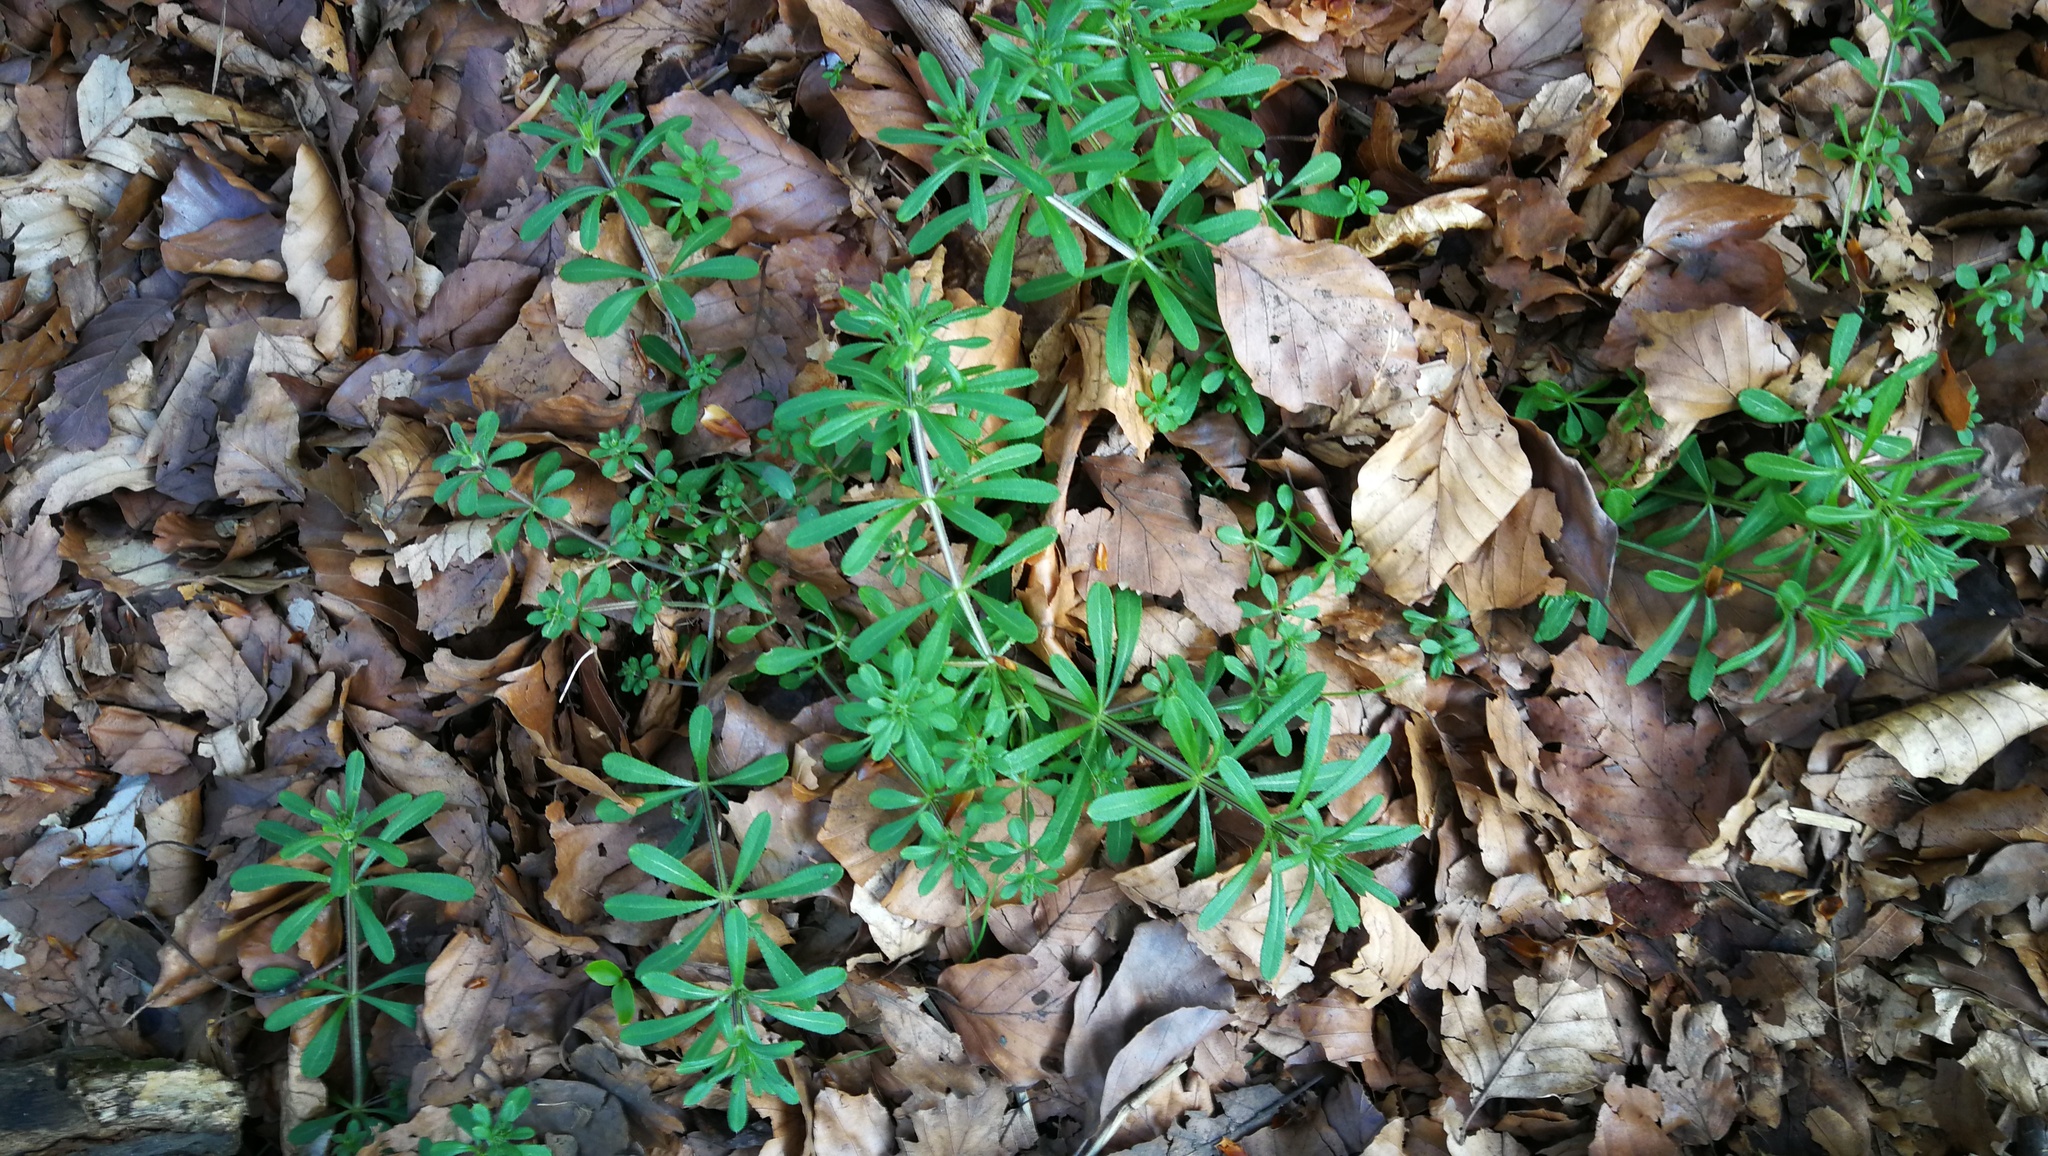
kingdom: Plantae
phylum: Tracheophyta
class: Magnoliopsida
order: Gentianales
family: Rubiaceae
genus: Galium
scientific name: Galium aparine
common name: Cleavers
